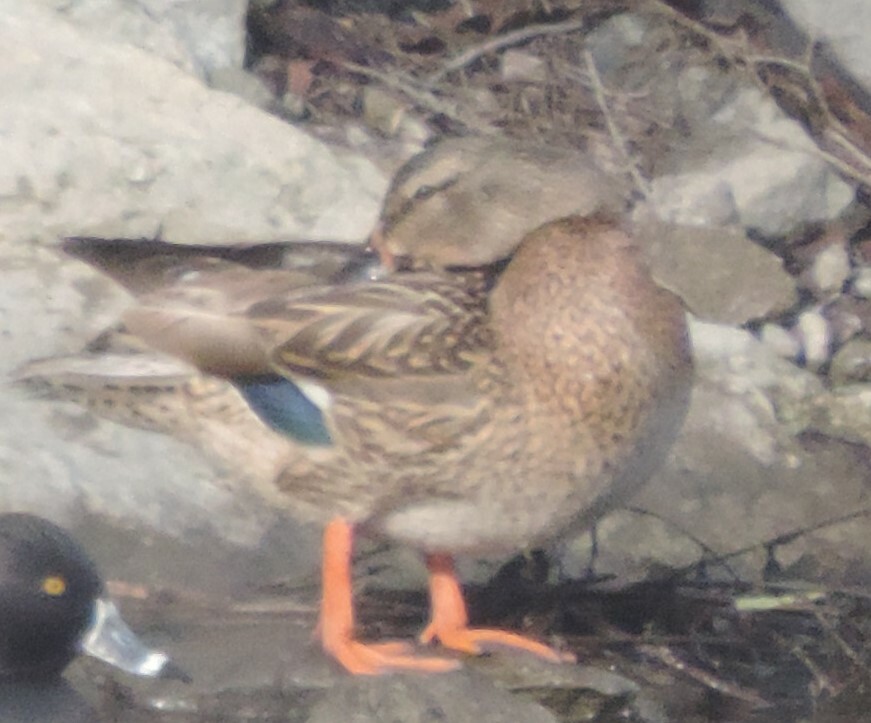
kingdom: Animalia
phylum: Chordata
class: Aves
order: Anseriformes
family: Anatidae
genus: Anas
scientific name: Anas platyrhynchos
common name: Mallard
